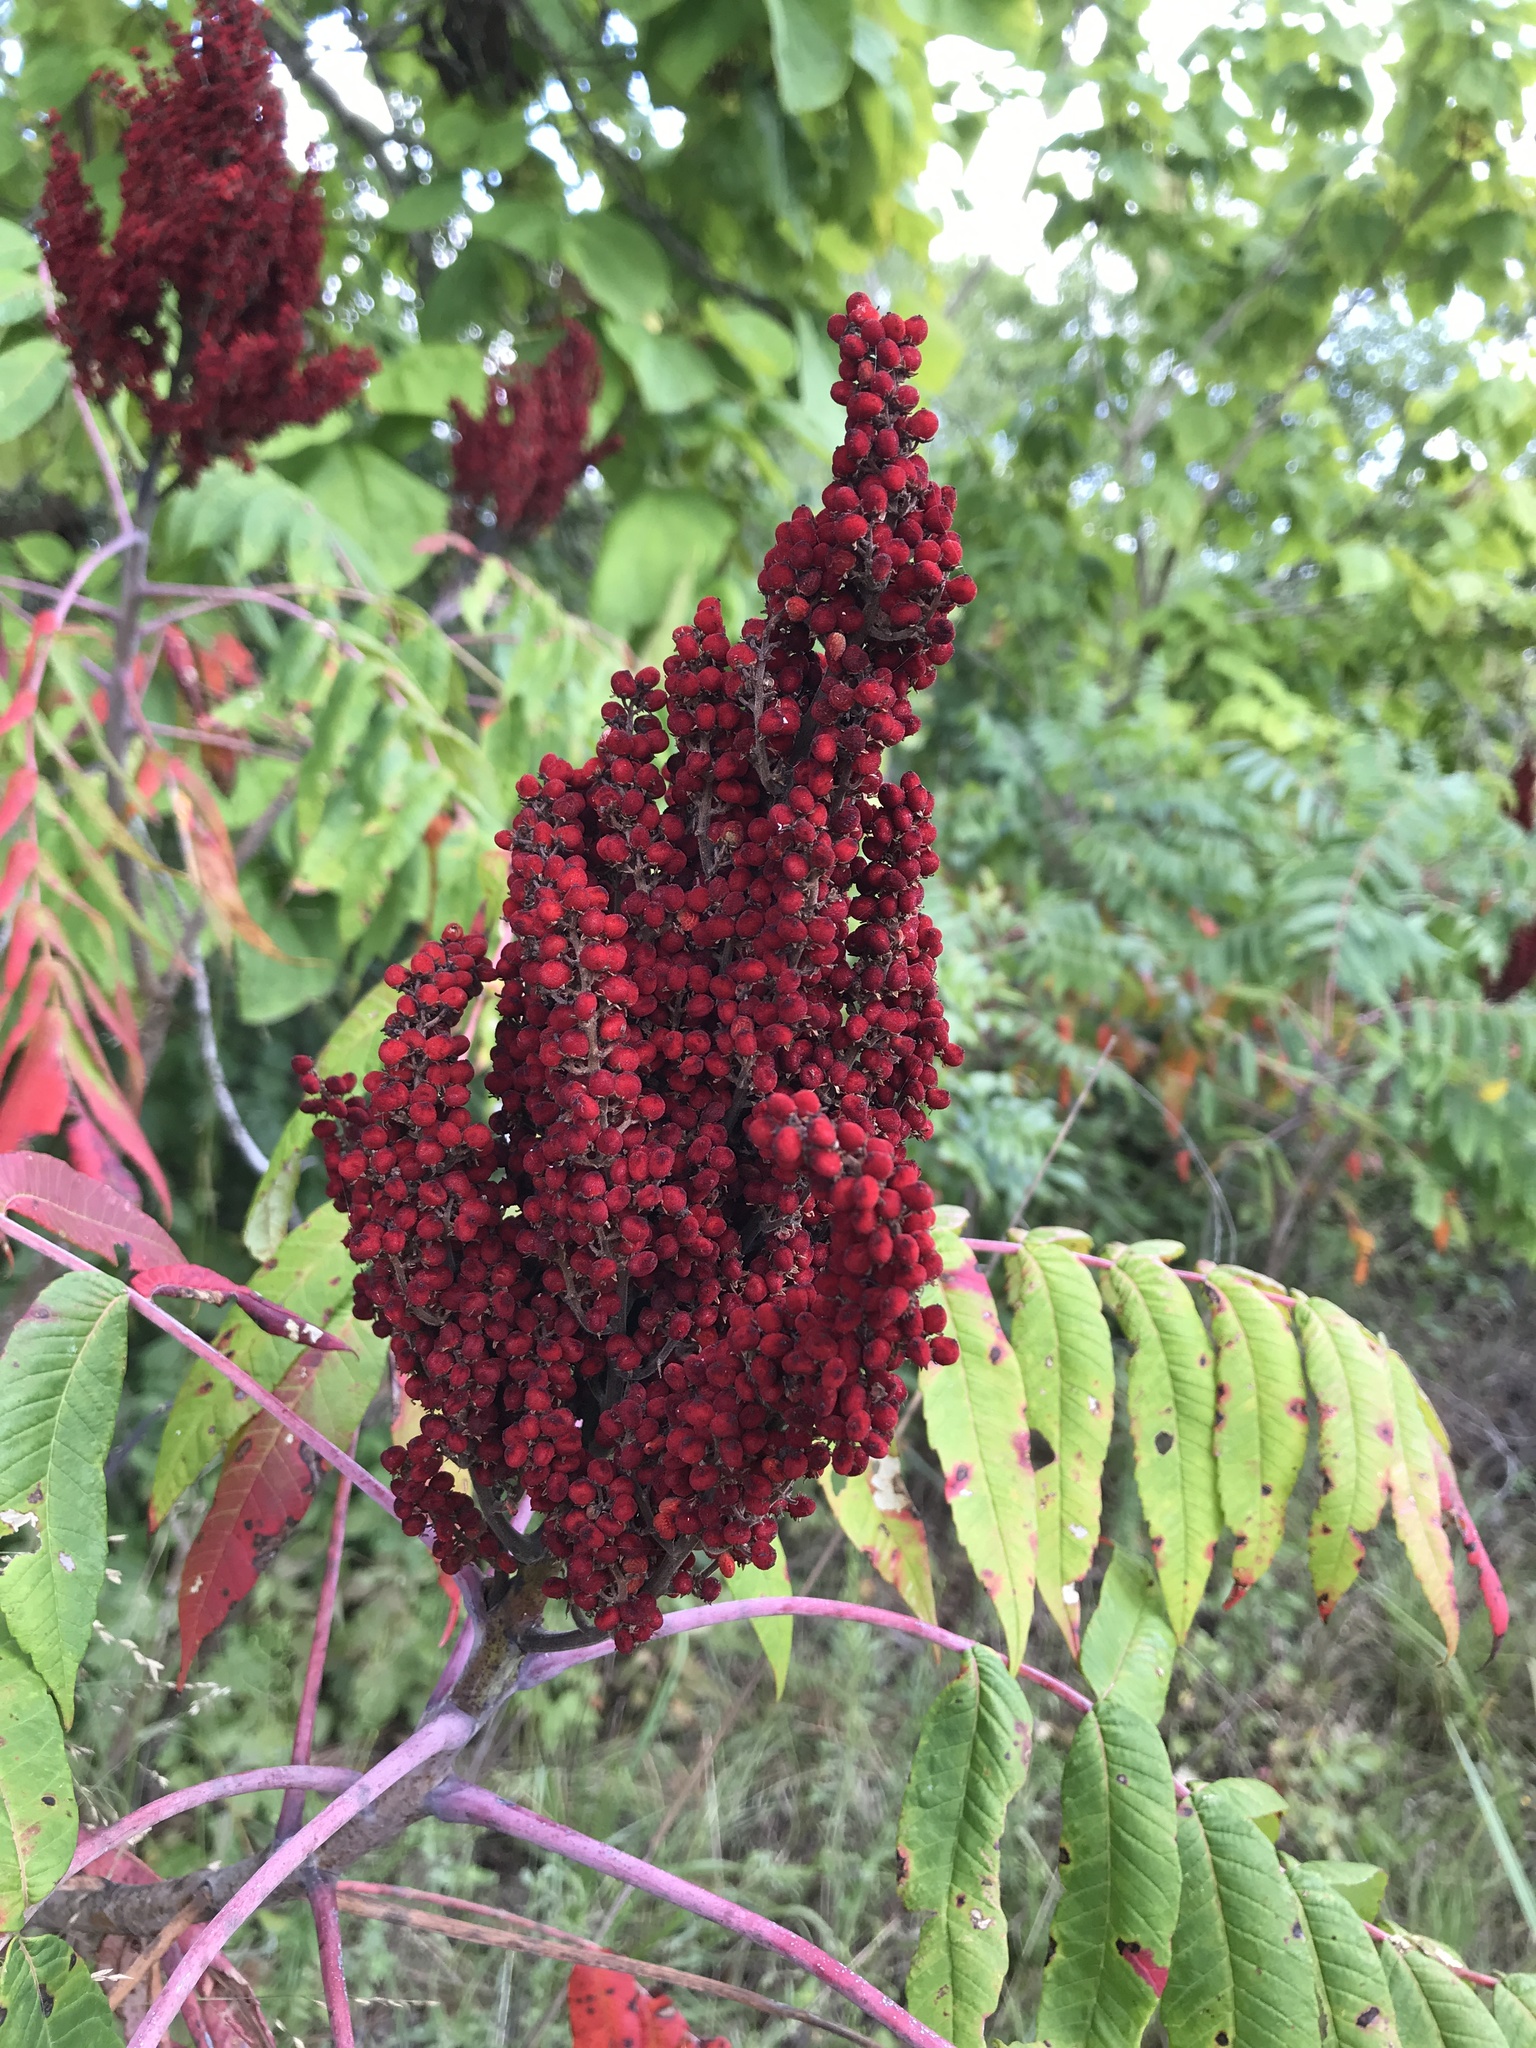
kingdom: Plantae
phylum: Tracheophyta
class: Magnoliopsida
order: Sapindales
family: Anacardiaceae
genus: Rhus
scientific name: Rhus glabra
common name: Scarlet sumac
